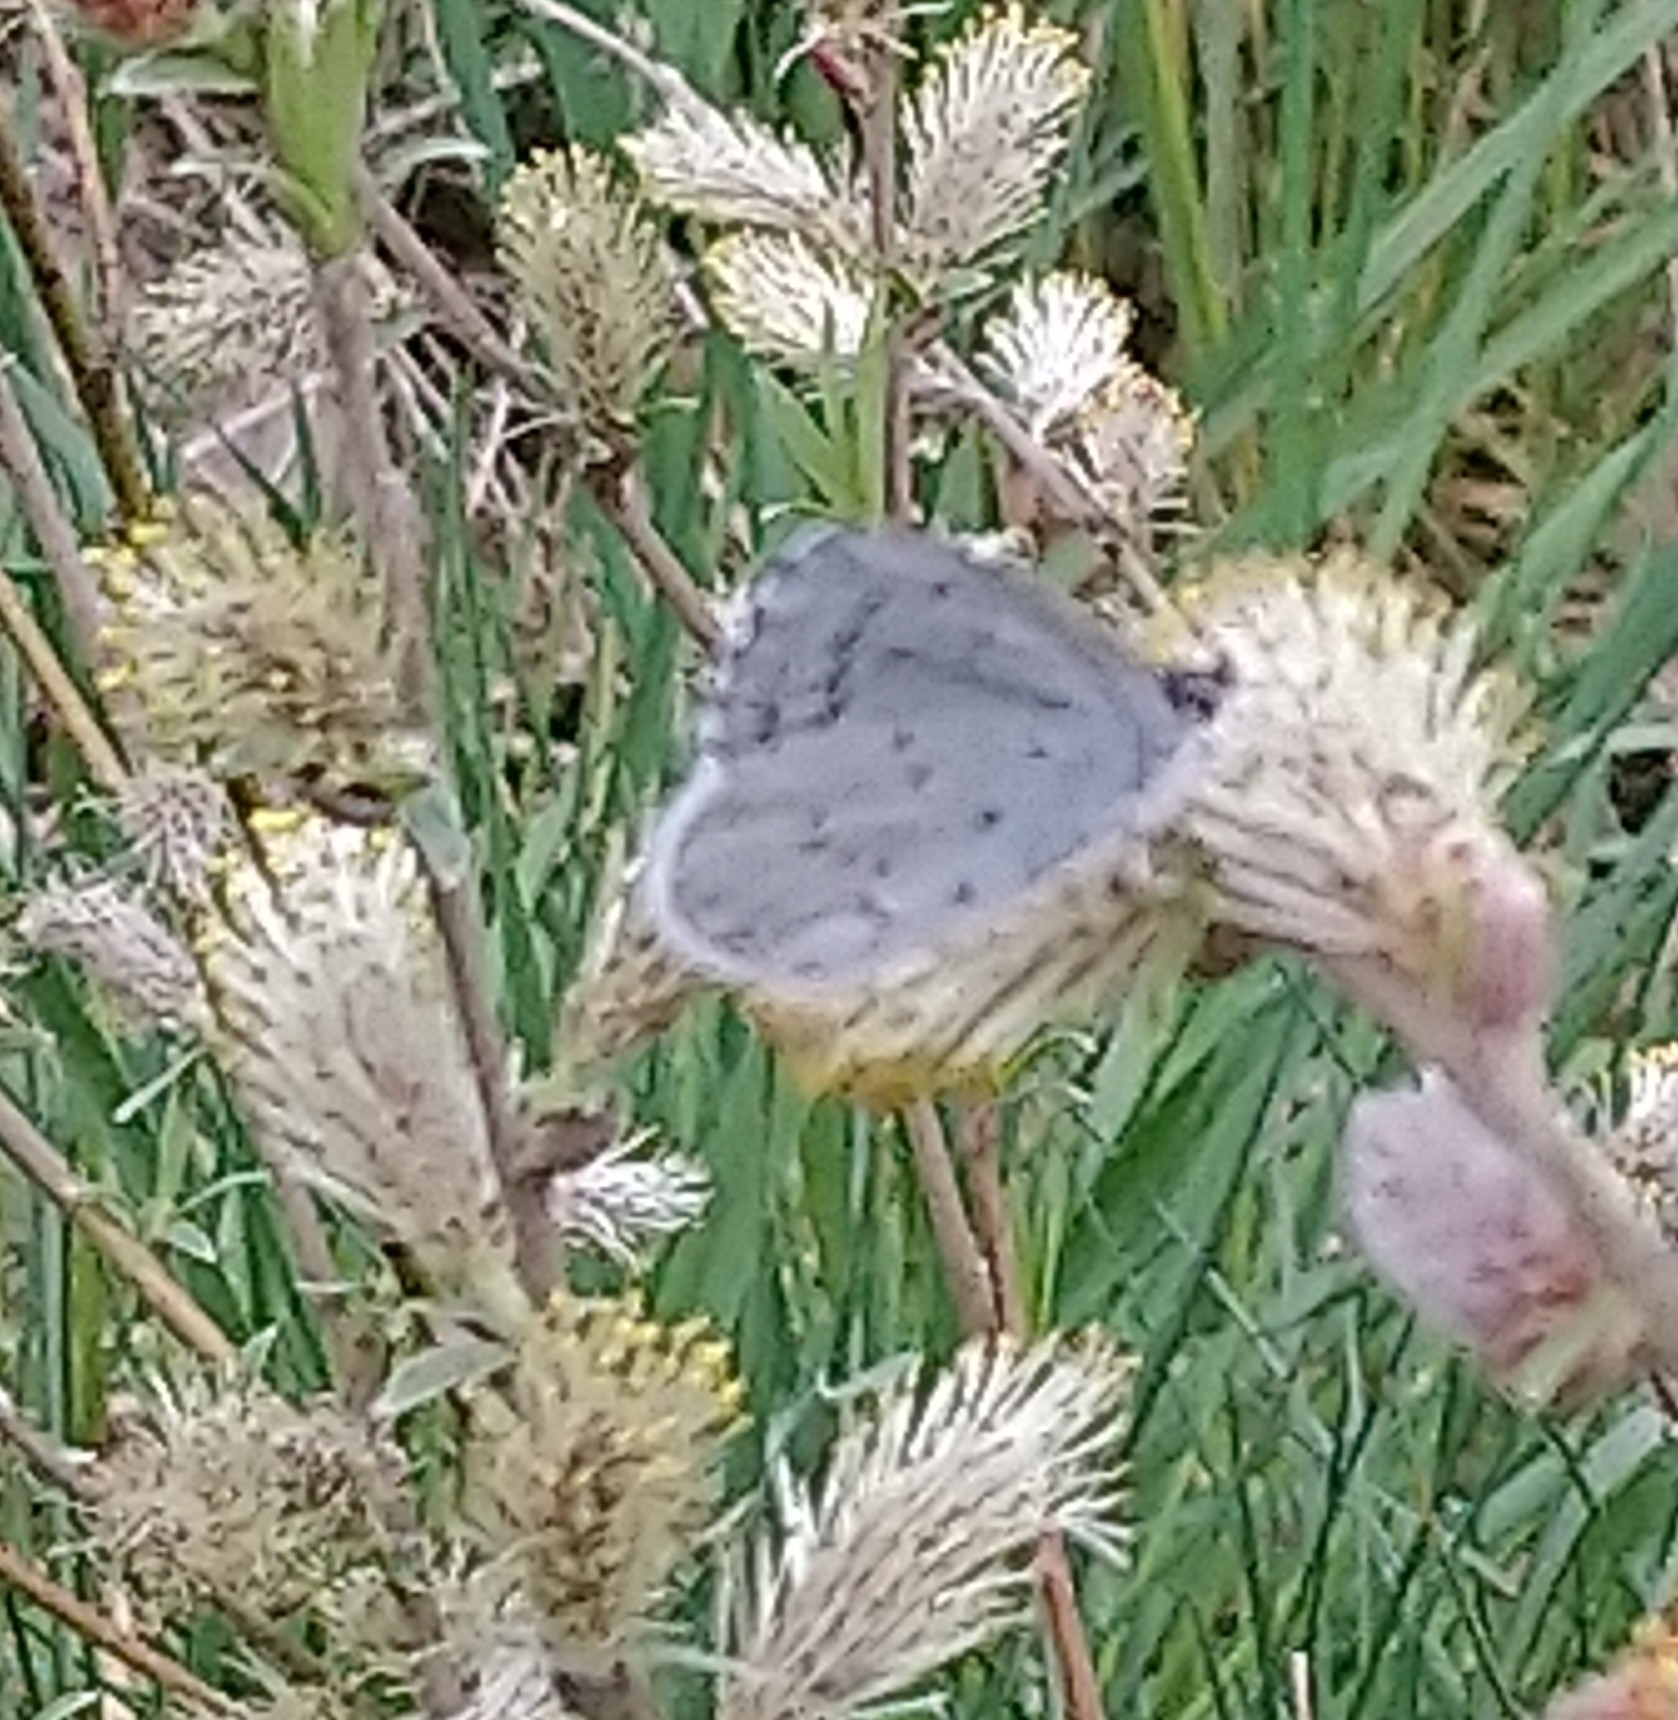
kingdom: Animalia
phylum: Arthropoda
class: Insecta
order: Lepidoptera
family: Lycaenidae
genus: Celastrina
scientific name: Celastrina argiolus
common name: Holly blue
